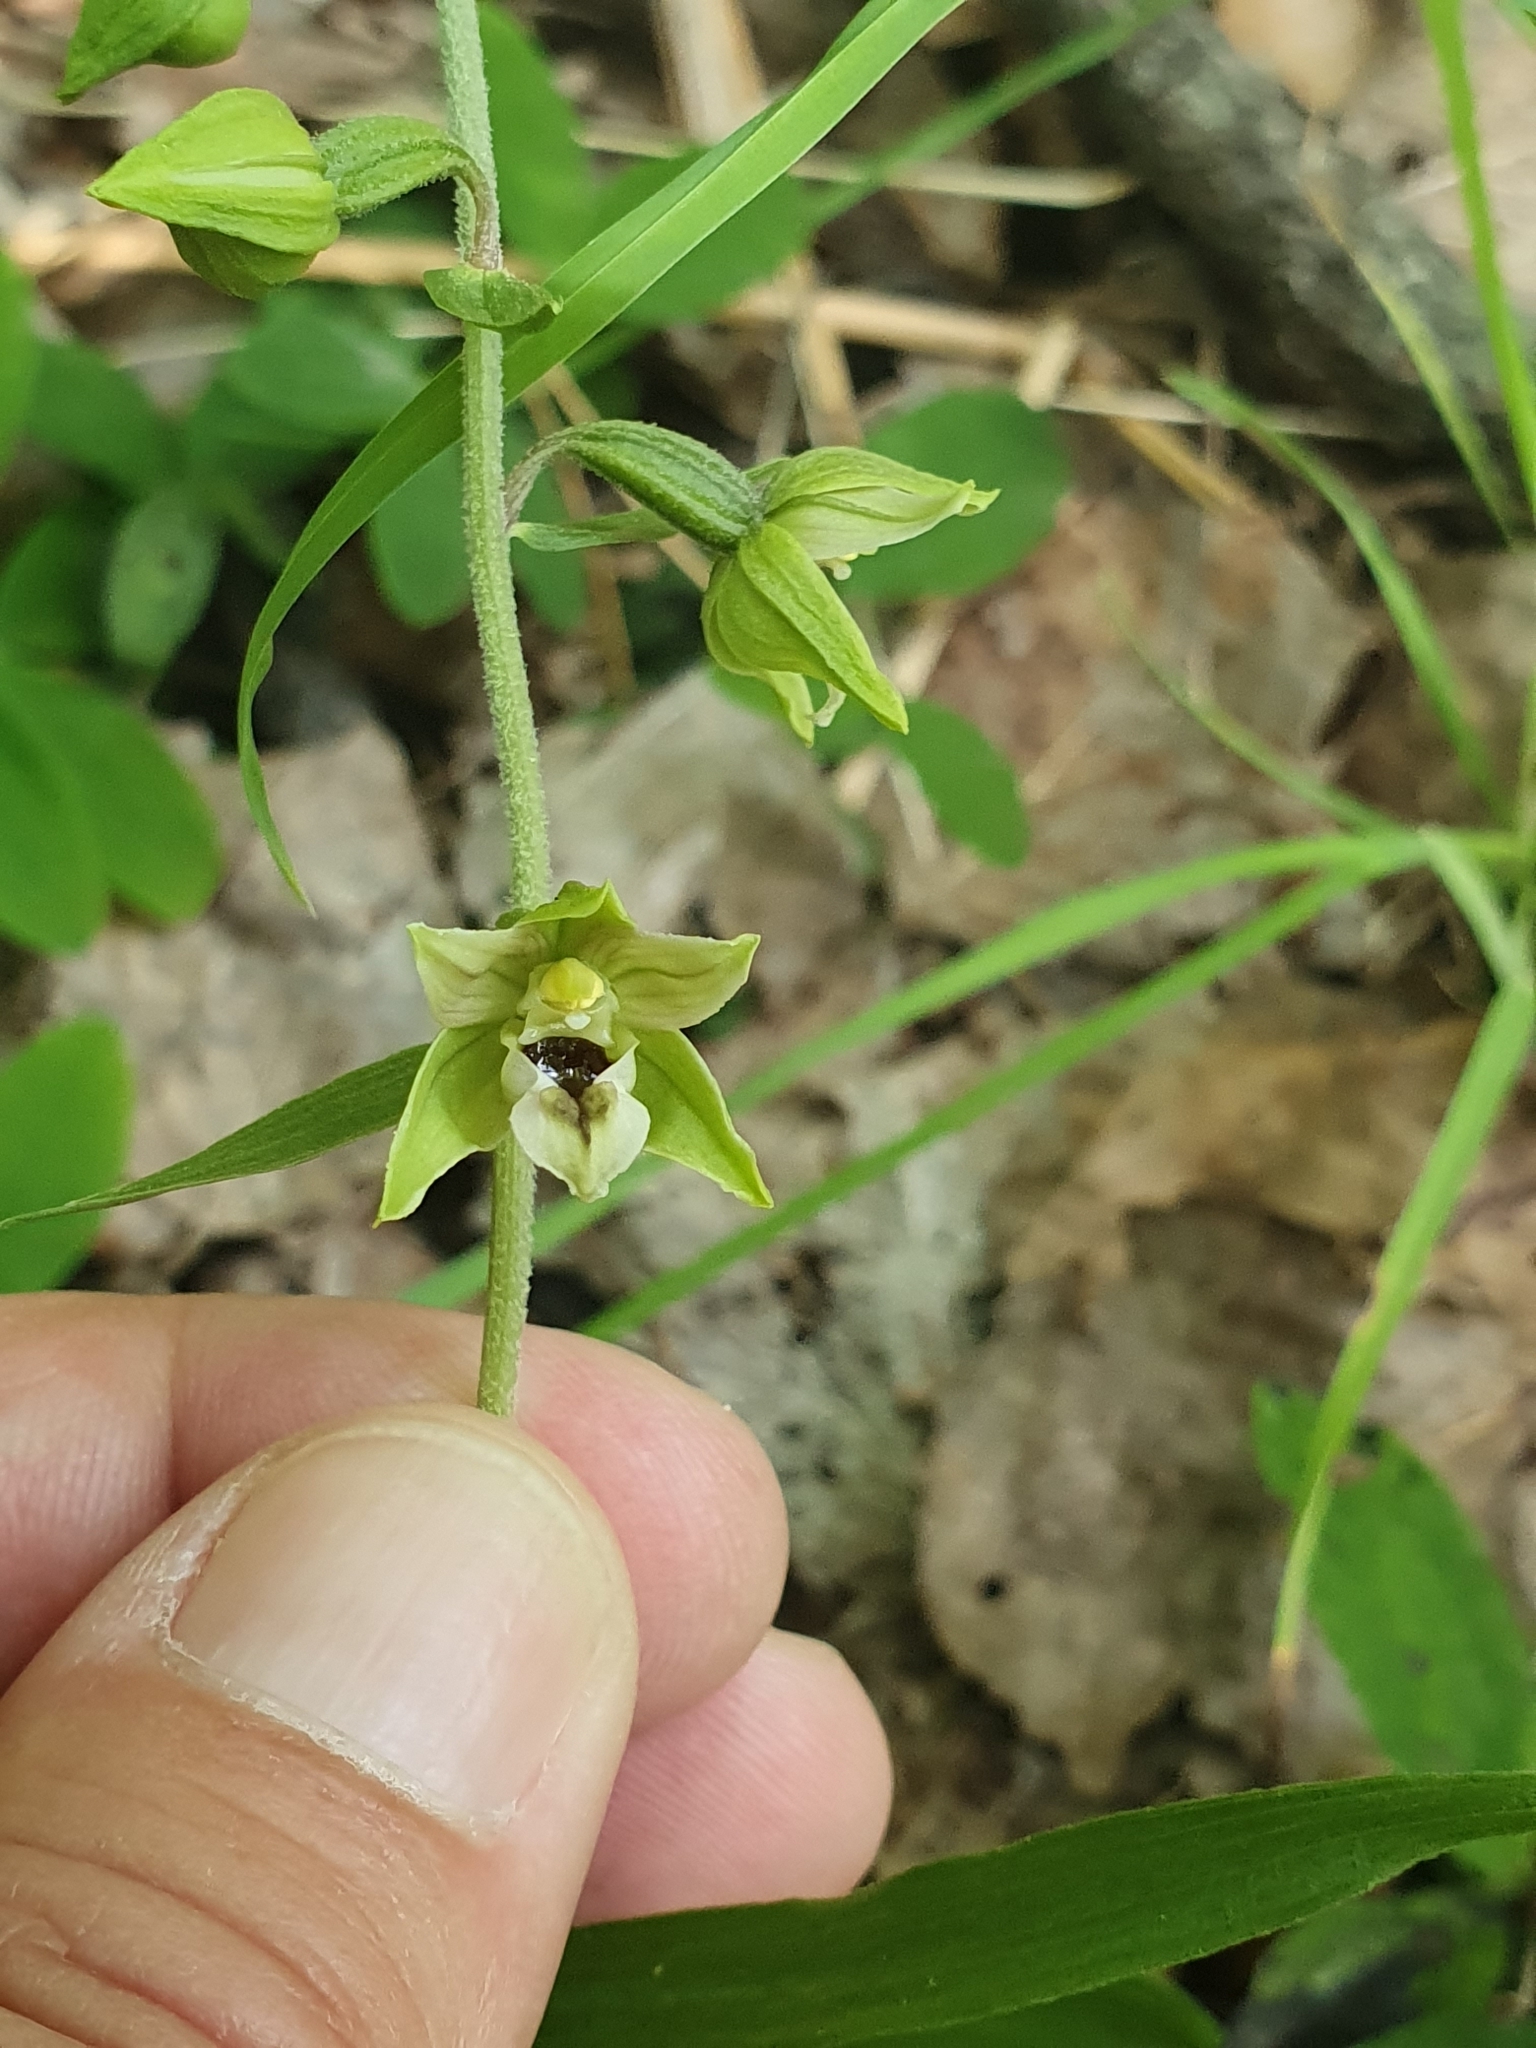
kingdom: Plantae
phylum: Tracheophyta
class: Liliopsida
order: Asparagales
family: Orchidaceae
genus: Epipactis
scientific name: Epipactis helleborine
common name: Broad-leaved helleborine
